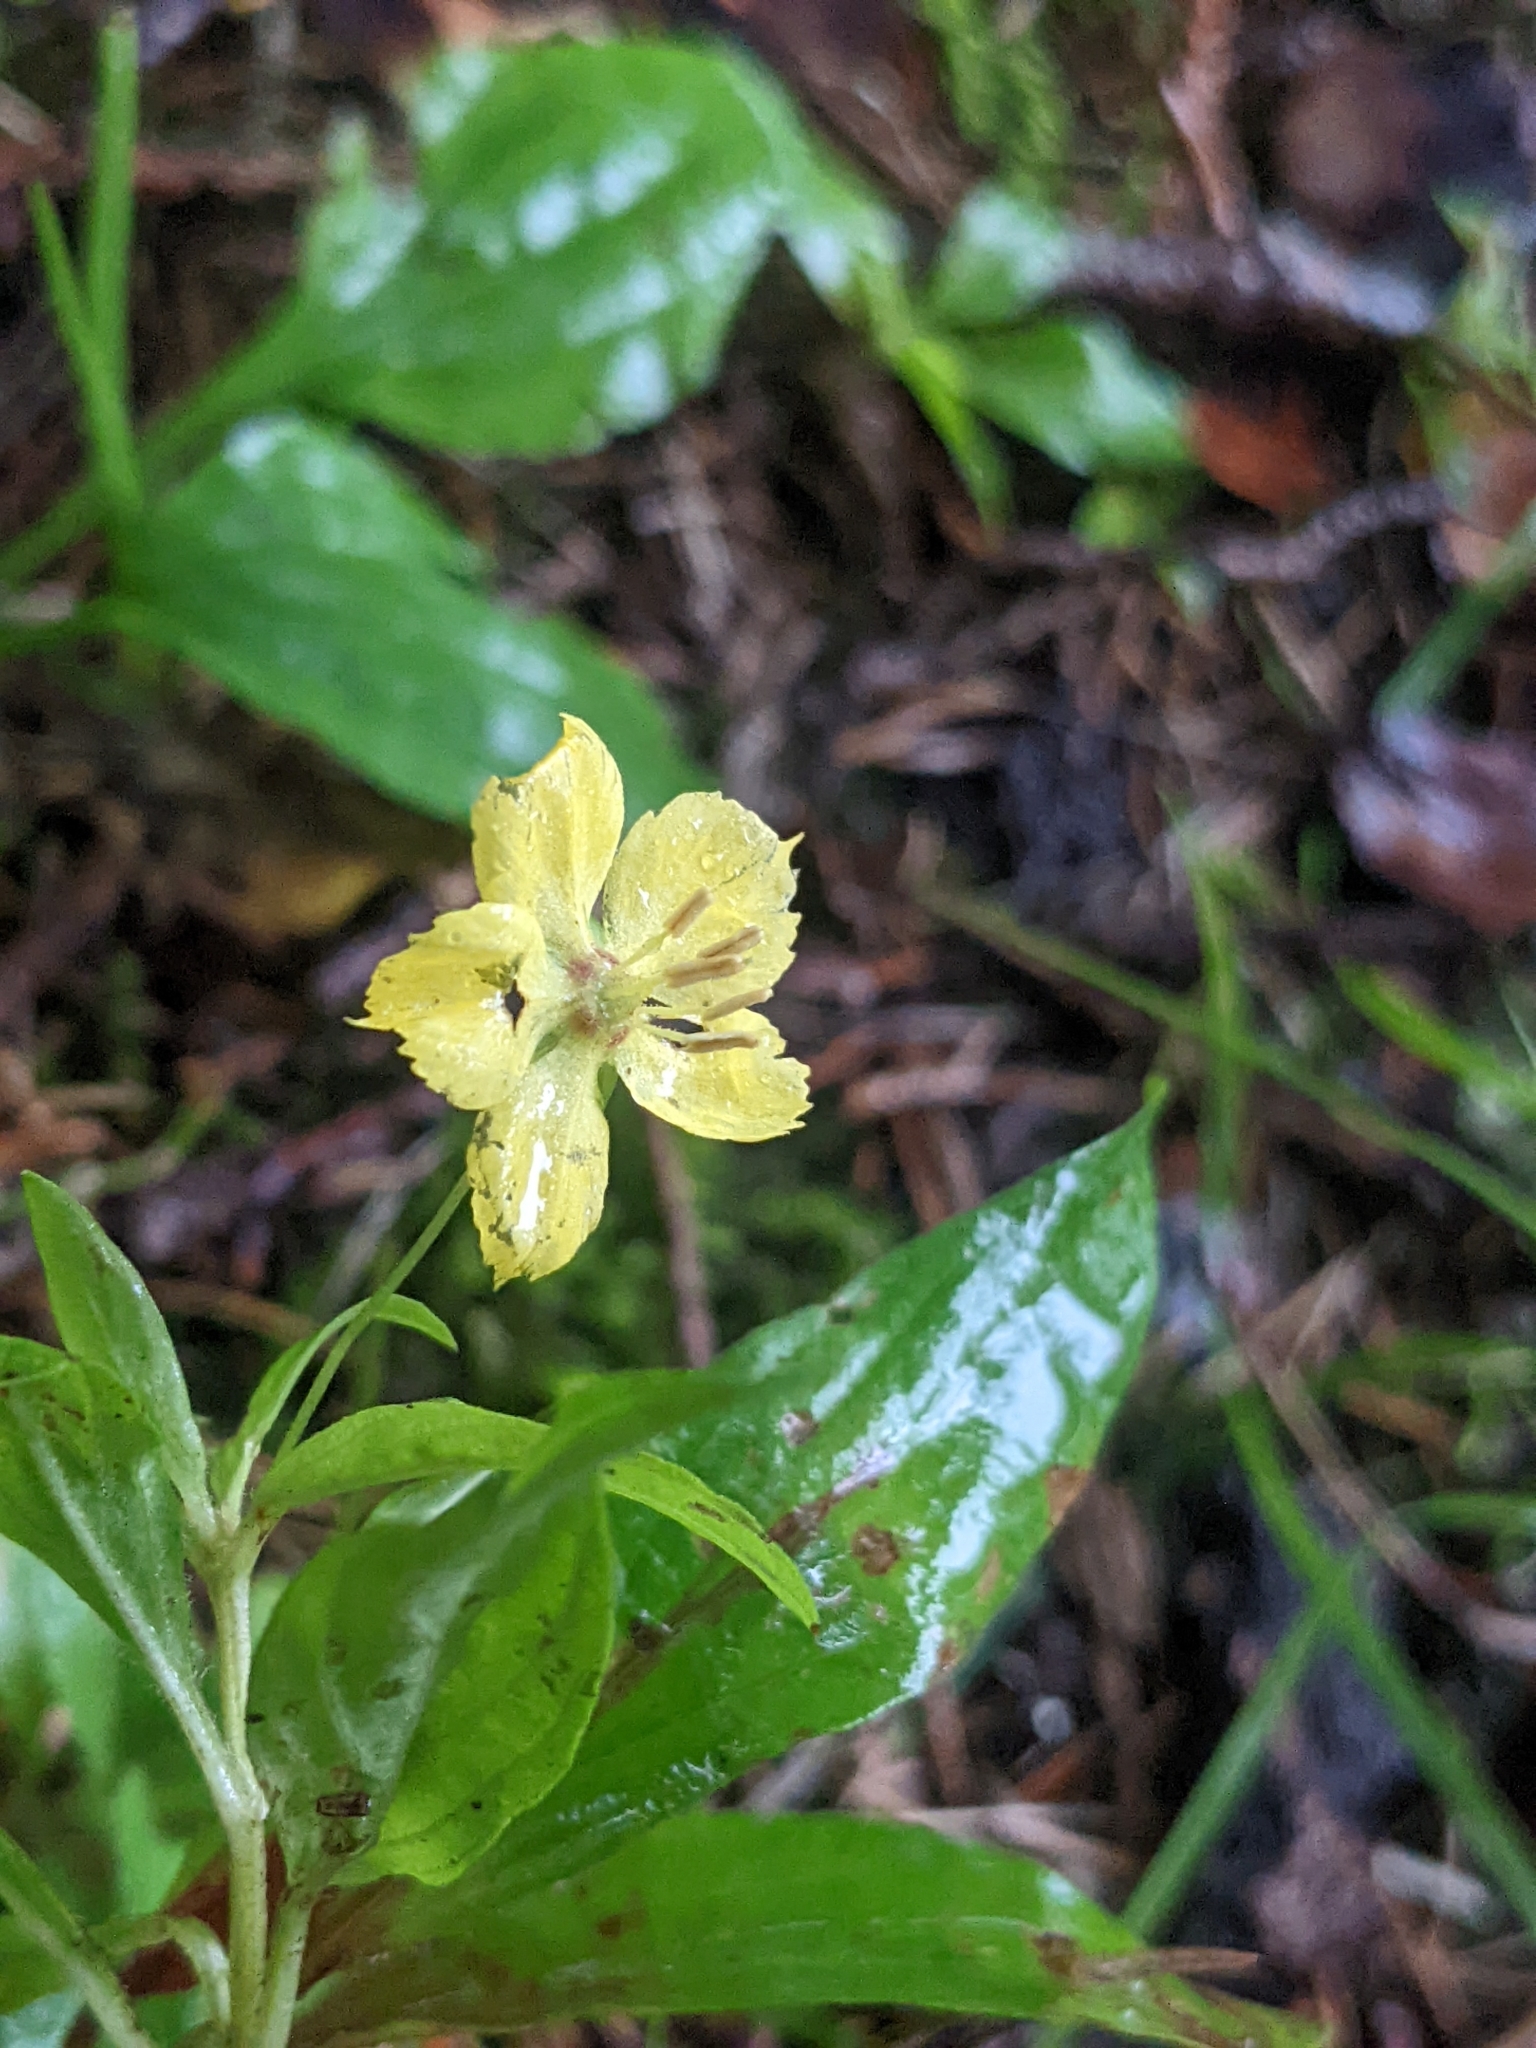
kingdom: Plantae
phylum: Tracheophyta
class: Magnoliopsida
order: Ericales
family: Primulaceae
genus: Lysimachia
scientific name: Lysimachia ciliata
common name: Fringed loosestrife
